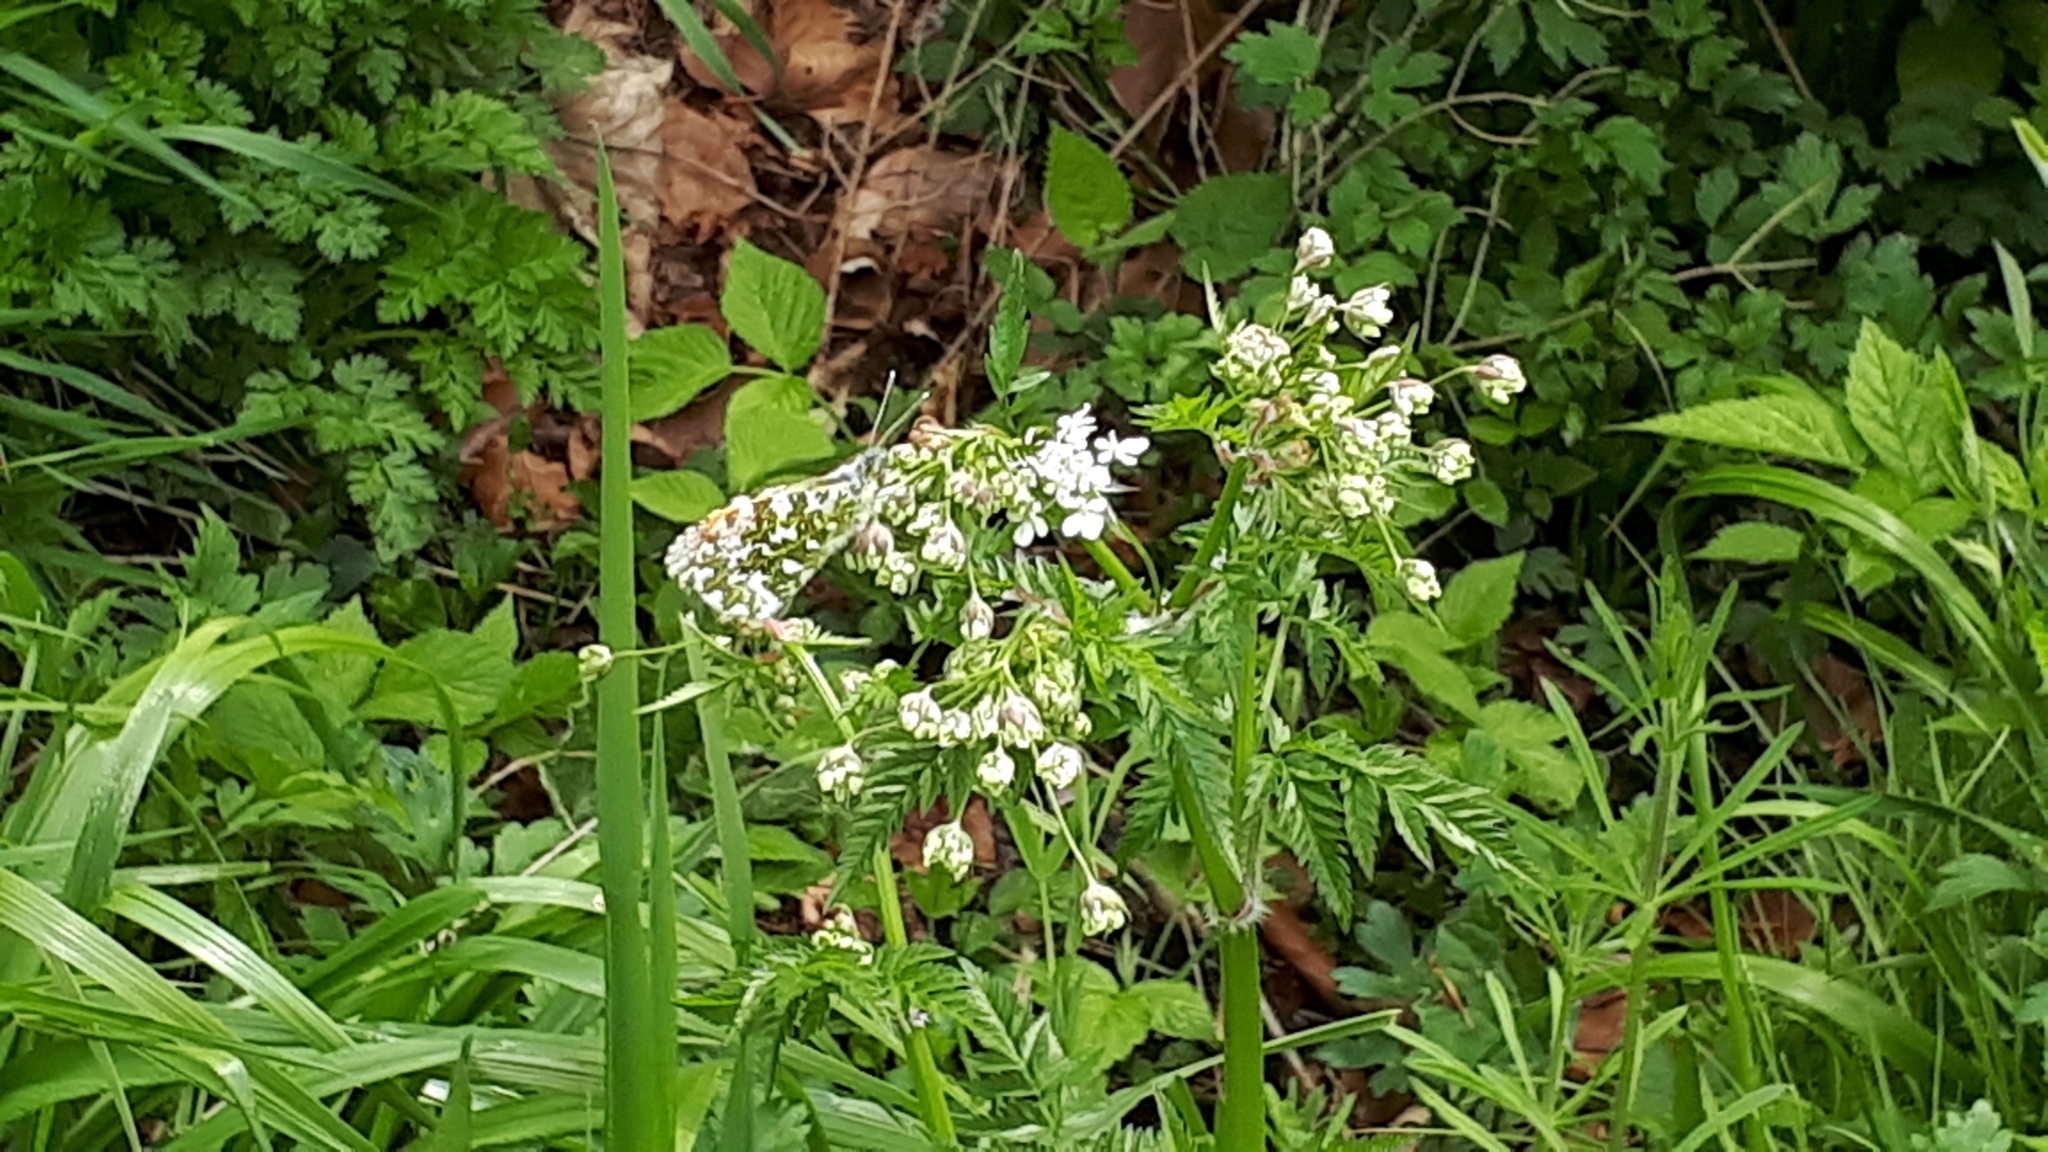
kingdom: Animalia
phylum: Arthropoda
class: Insecta
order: Lepidoptera
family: Pieridae
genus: Anthocharis
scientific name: Anthocharis cardamines
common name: Orange-tip
